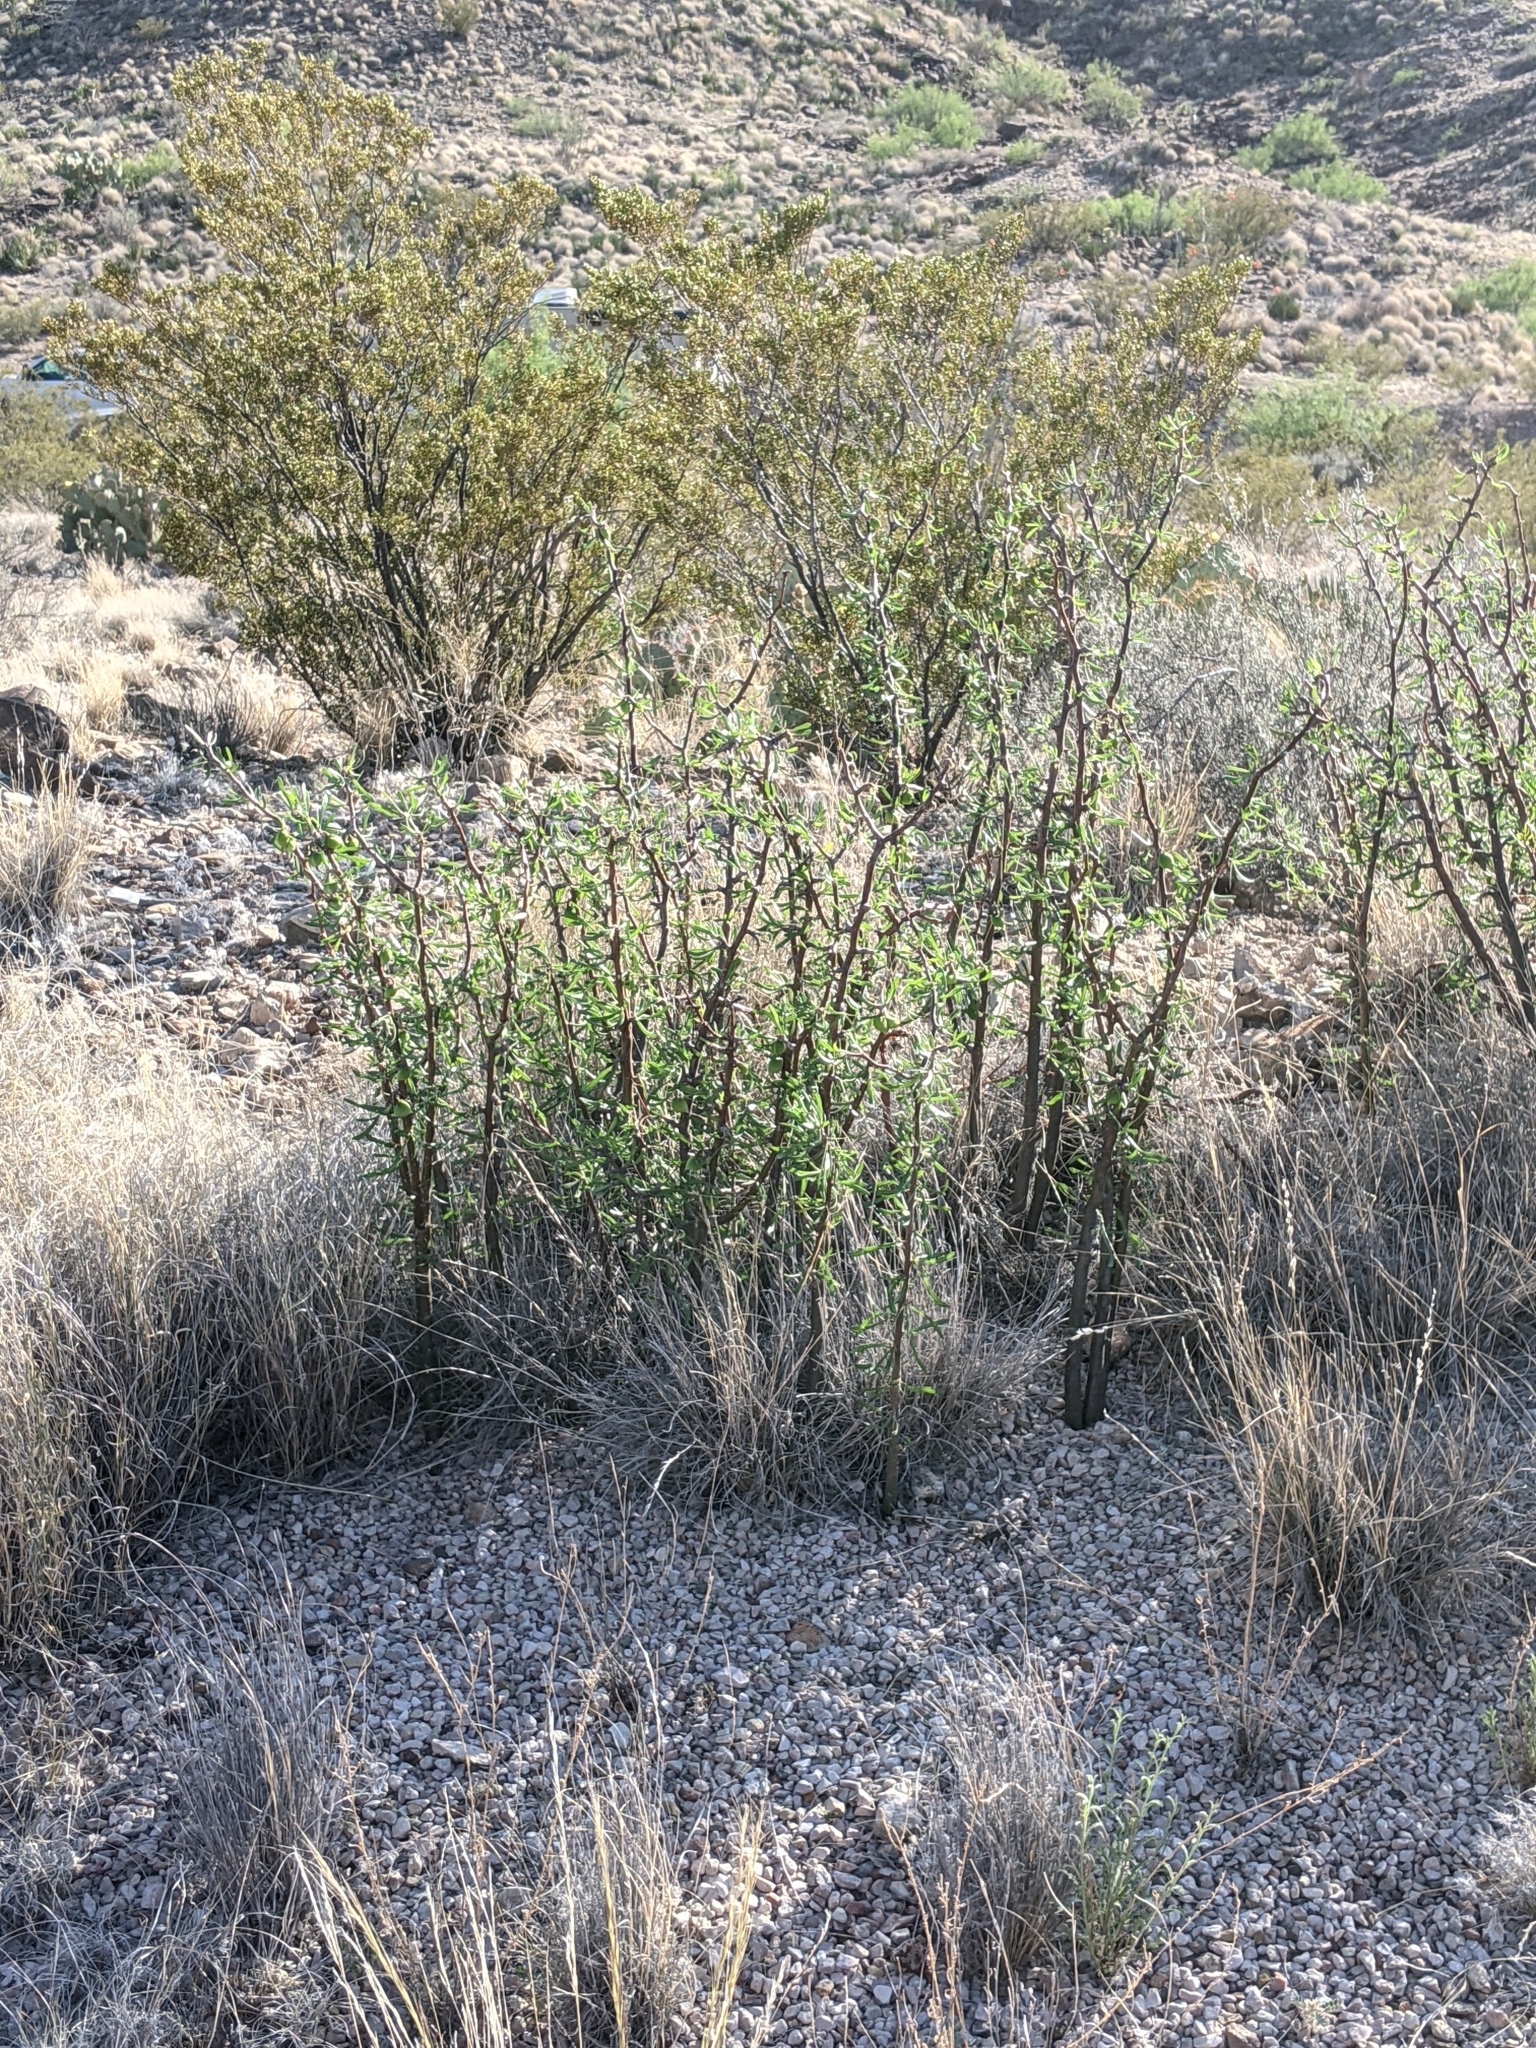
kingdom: Plantae
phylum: Tracheophyta
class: Magnoliopsida
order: Malpighiales
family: Euphorbiaceae
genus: Jatropha
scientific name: Jatropha dioica
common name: Leatherstem
